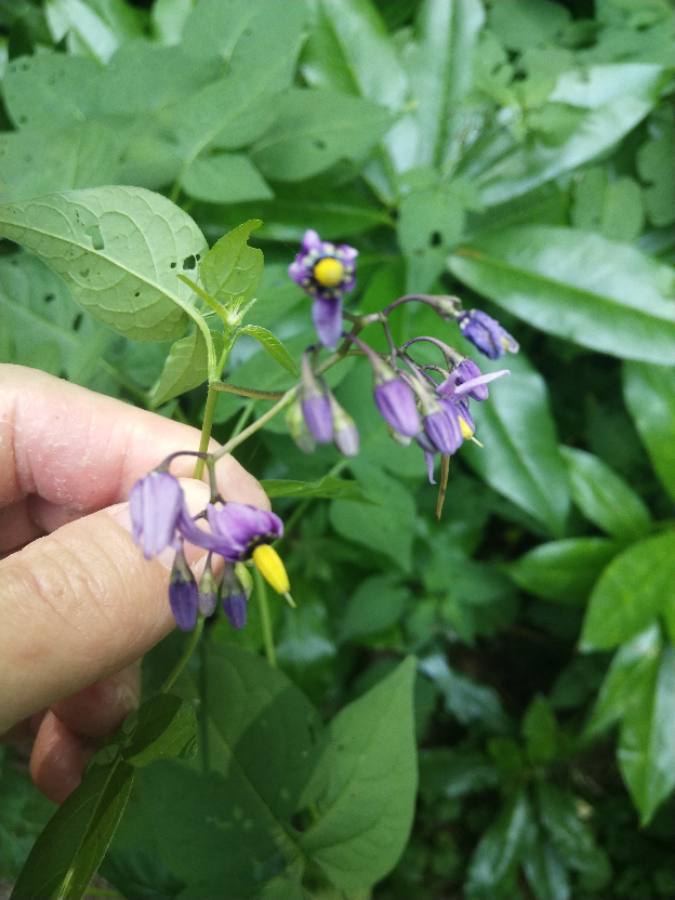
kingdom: Plantae
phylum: Tracheophyta
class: Magnoliopsida
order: Solanales
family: Solanaceae
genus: Solanum
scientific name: Solanum dulcamara
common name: Climbing nightshade
